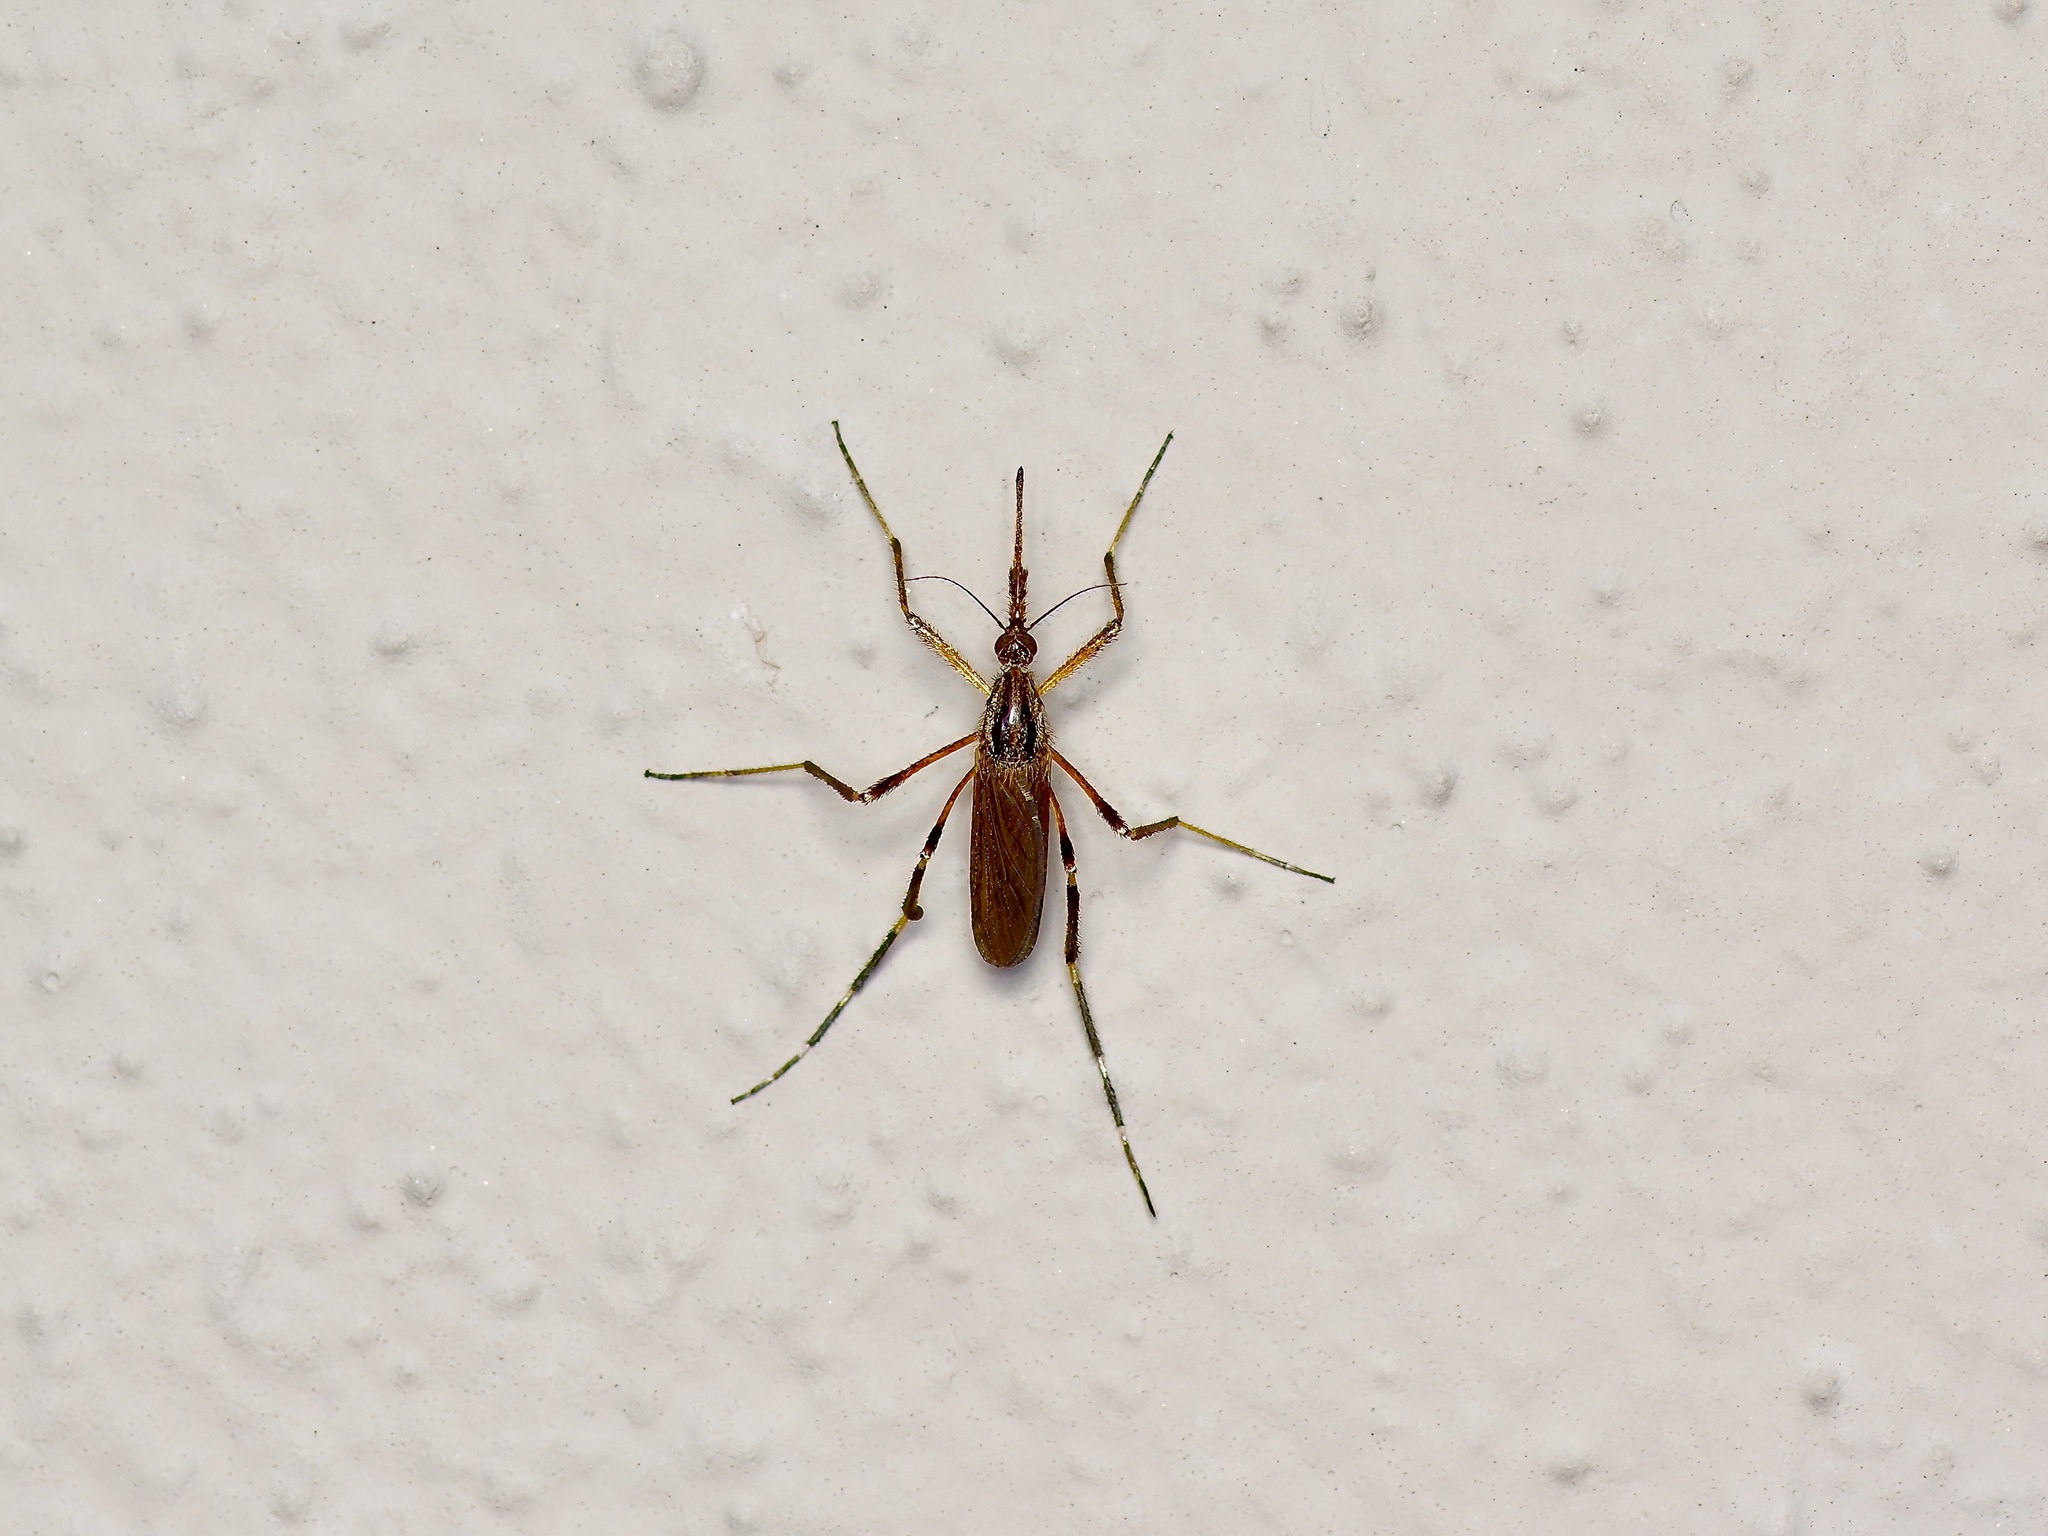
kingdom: Animalia
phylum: Arthropoda
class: Insecta
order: Diptera
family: Culicidae
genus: Psorophora
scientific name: Psorophora ciliata
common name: Gallinipper
